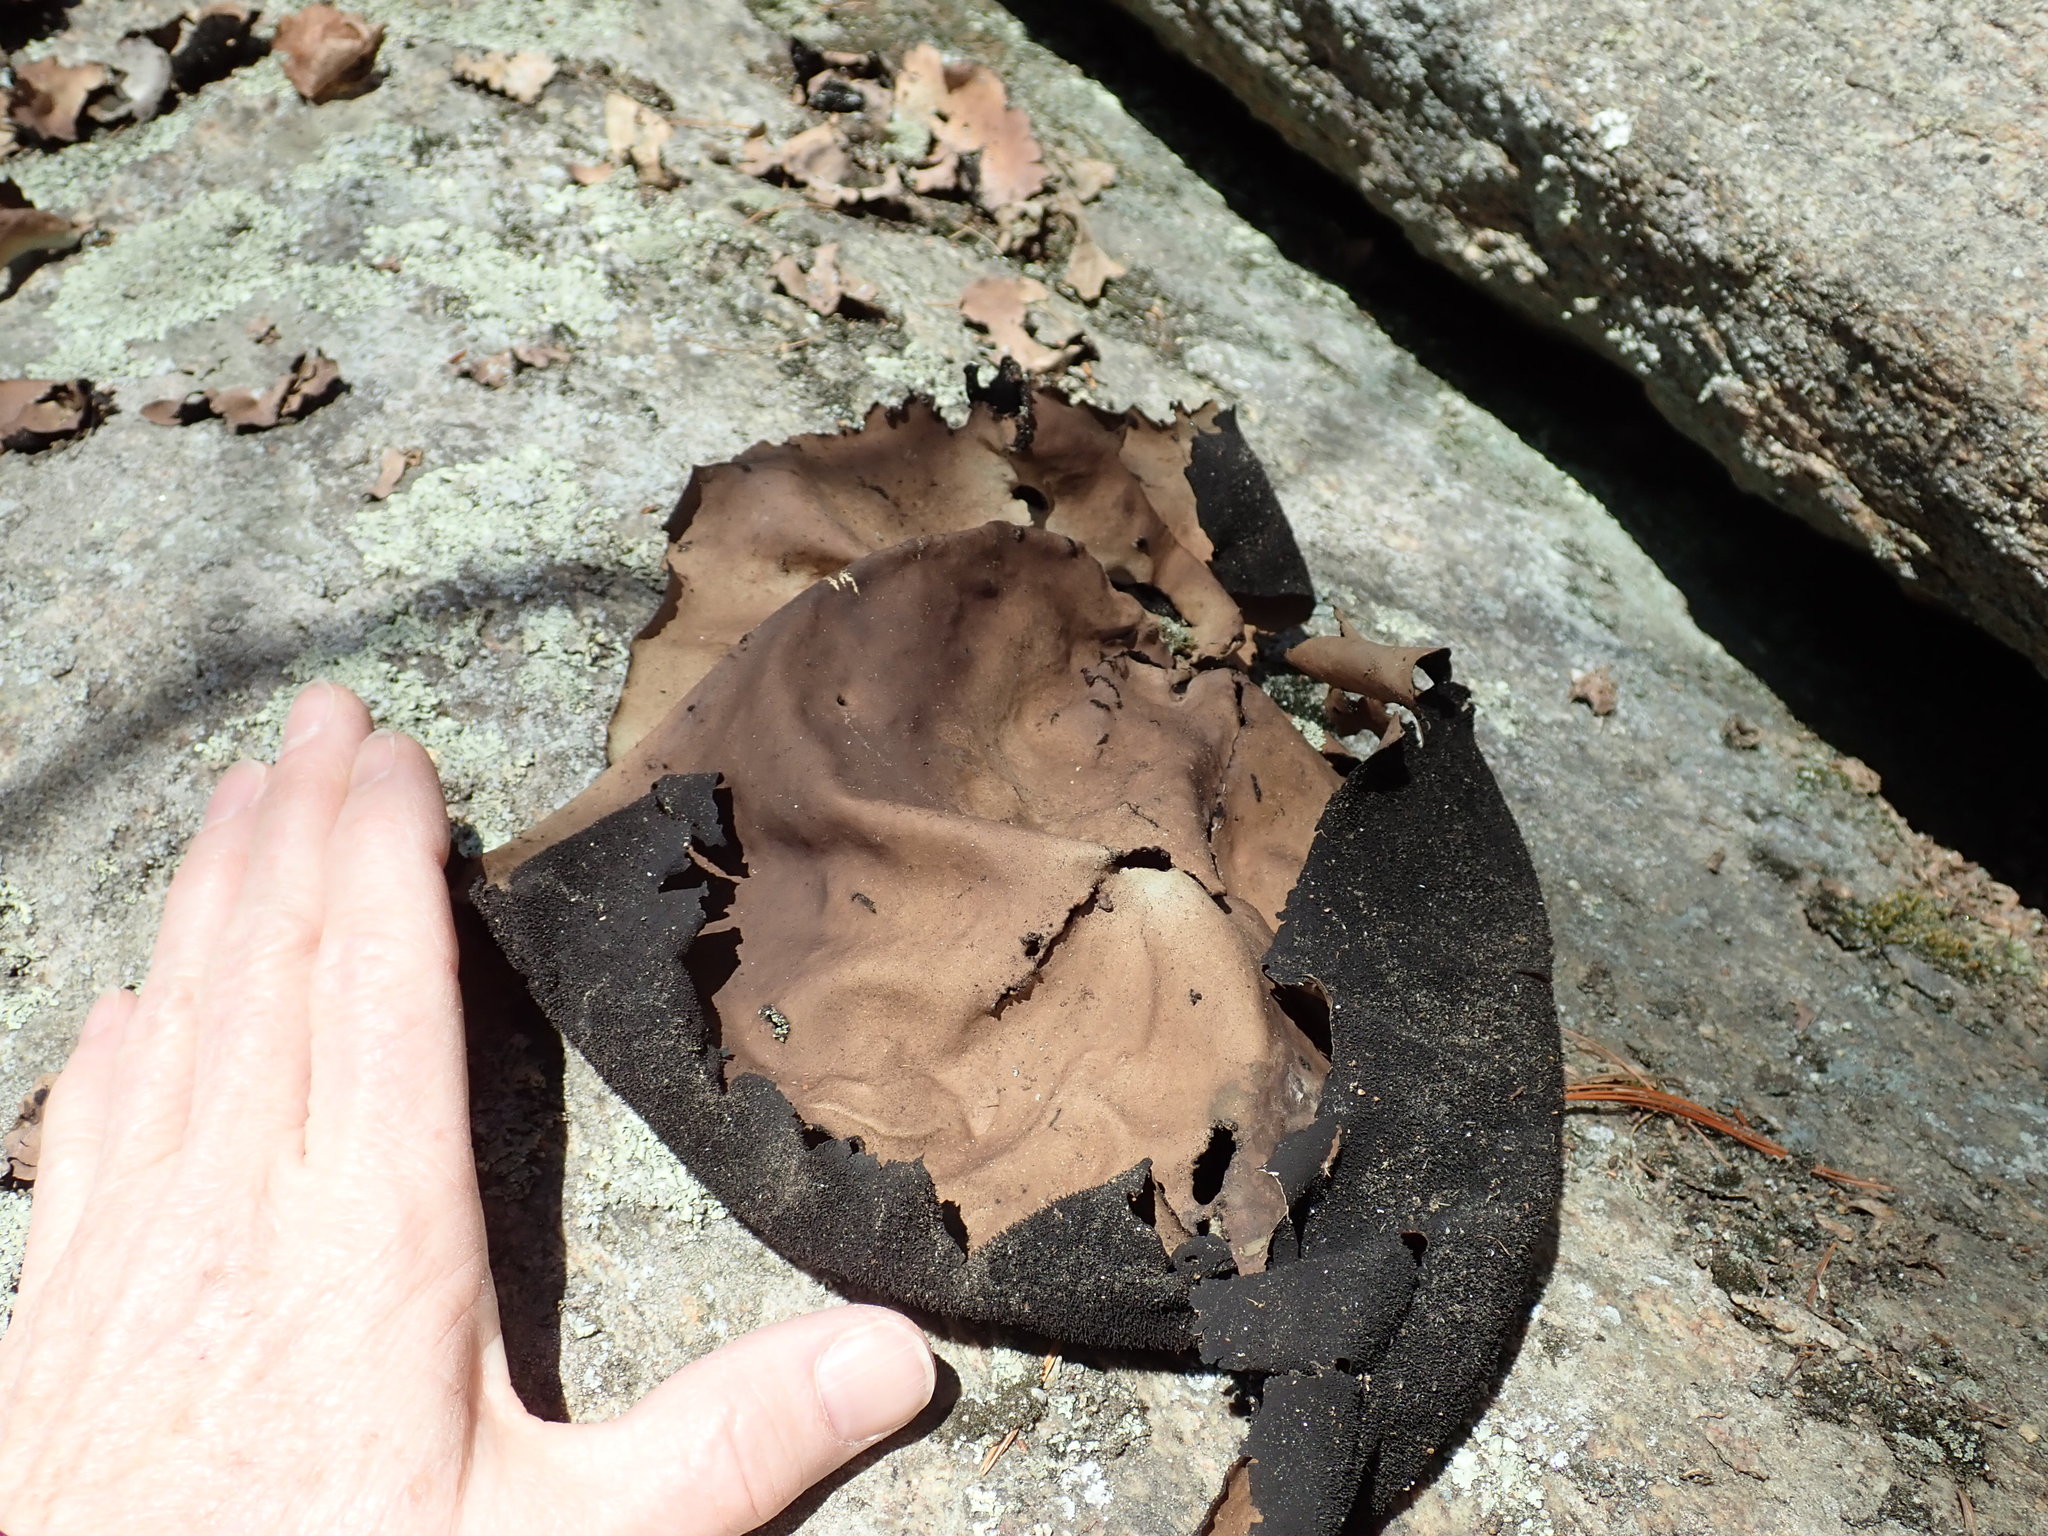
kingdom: Fungi
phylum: Ascomycota
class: Lecanoromycetes
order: Umbilicariales
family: Umbilicariaceae
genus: Umbilicaria
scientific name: Umbilicaria mammulata
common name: Smooth rock tripe
